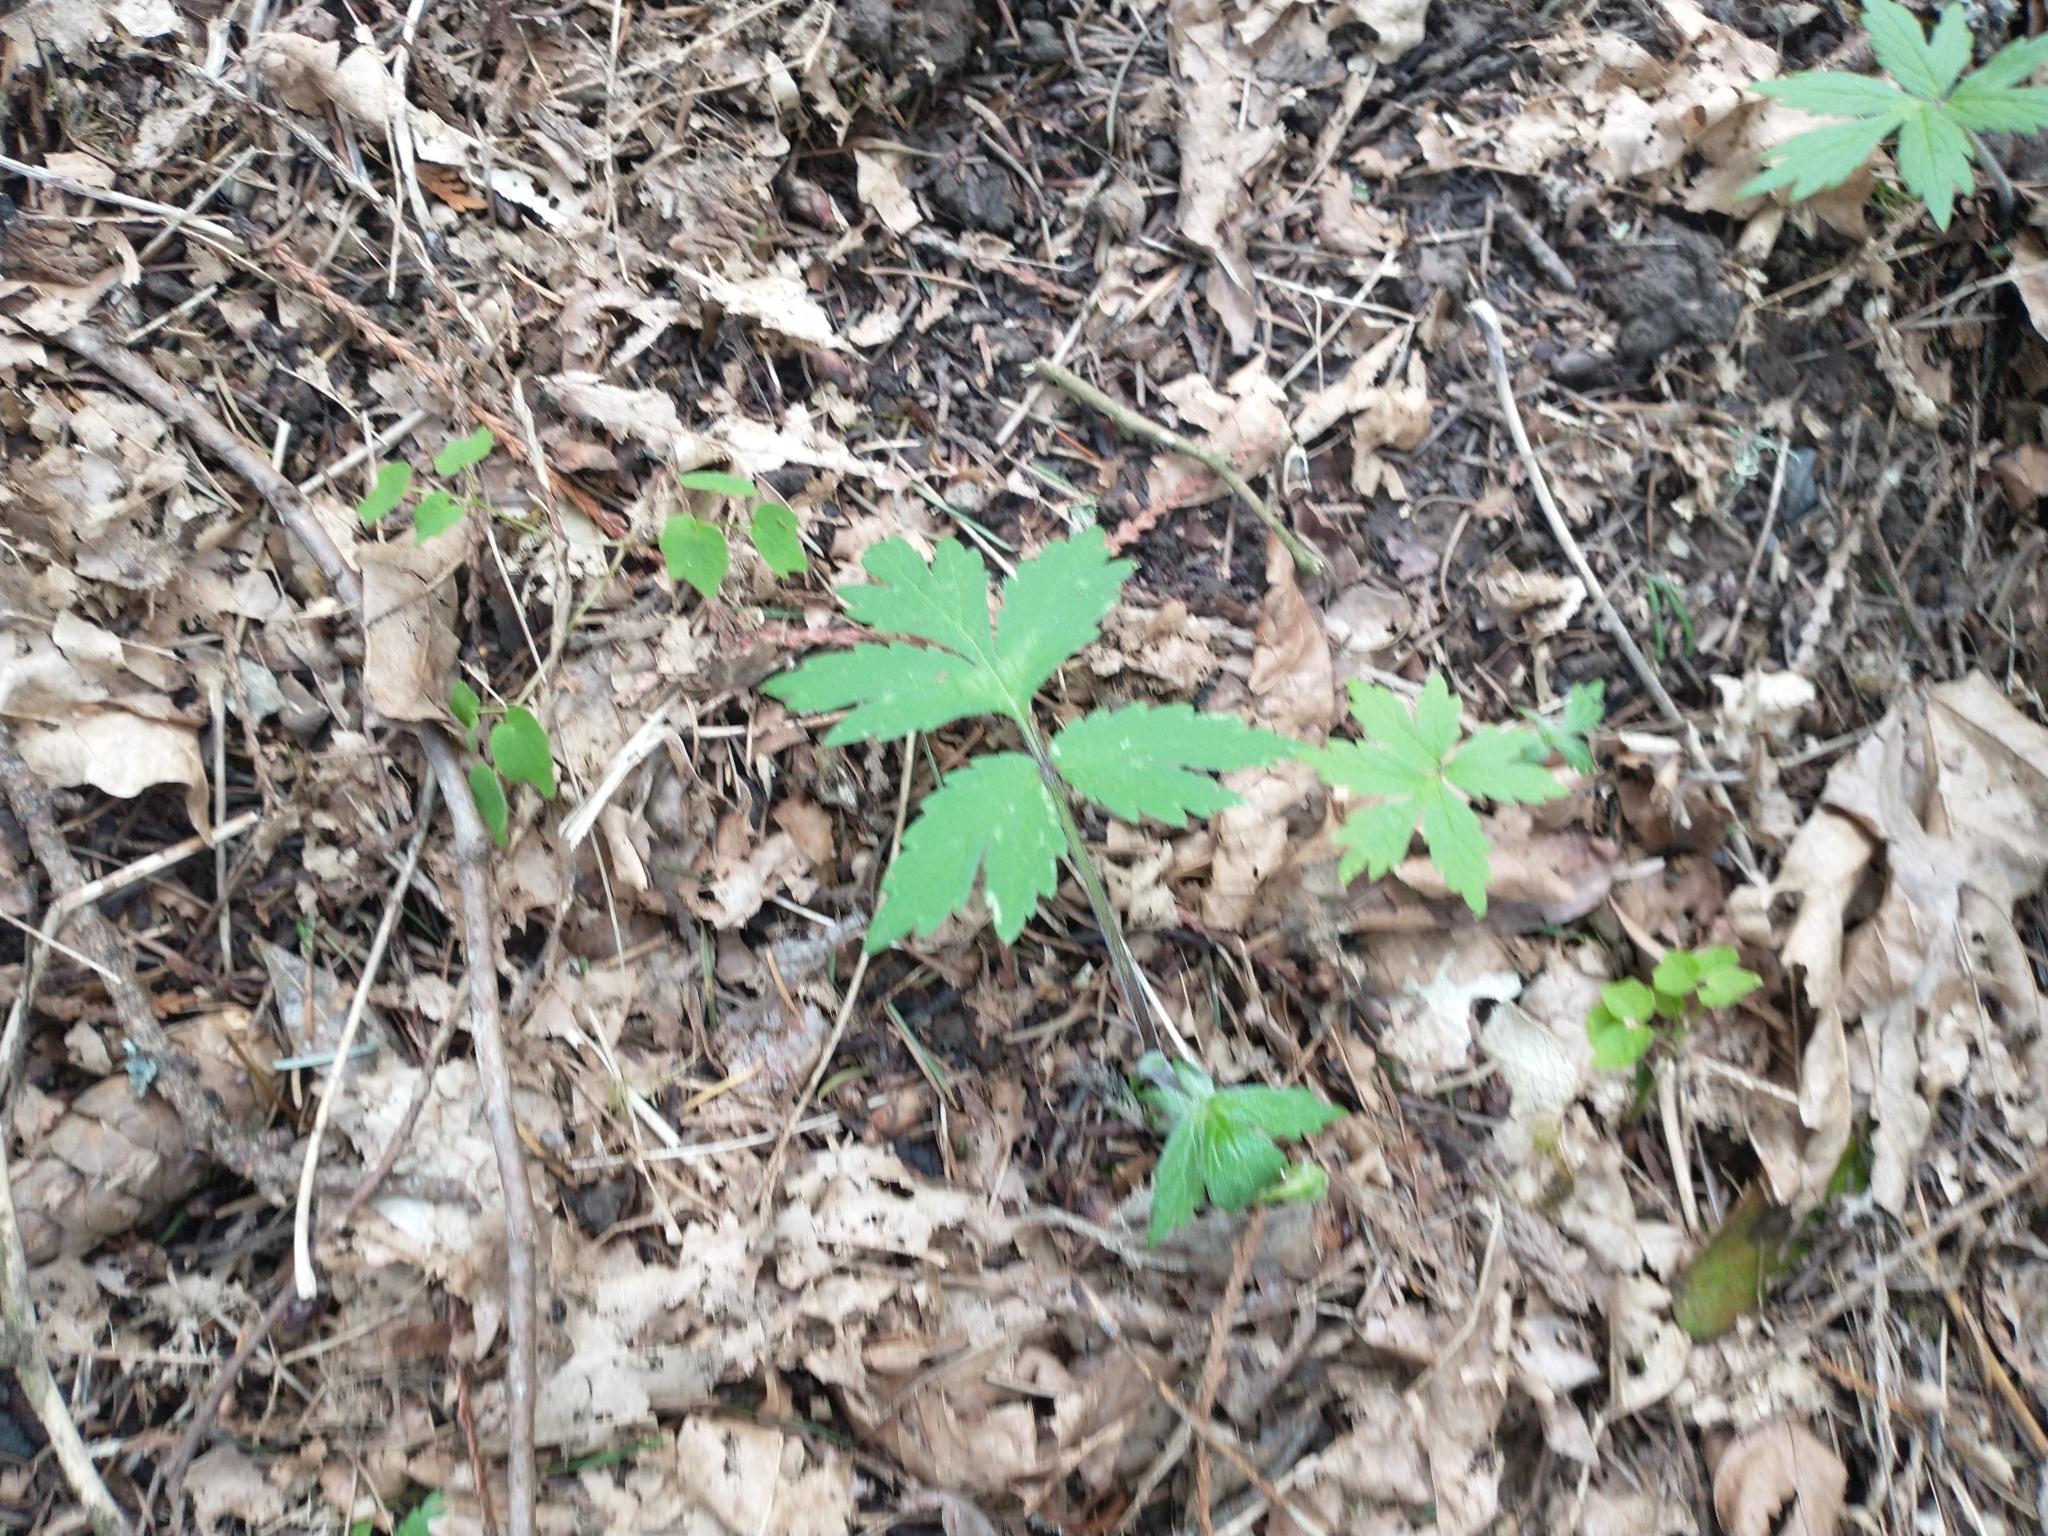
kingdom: Plantae
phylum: Tracheophyta
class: Magnoliopsida
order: Boraginales
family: Hydrophyllaceae
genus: Hydrophyllum
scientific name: Hydrophyllum tenuipes
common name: Pacific waterleaf
